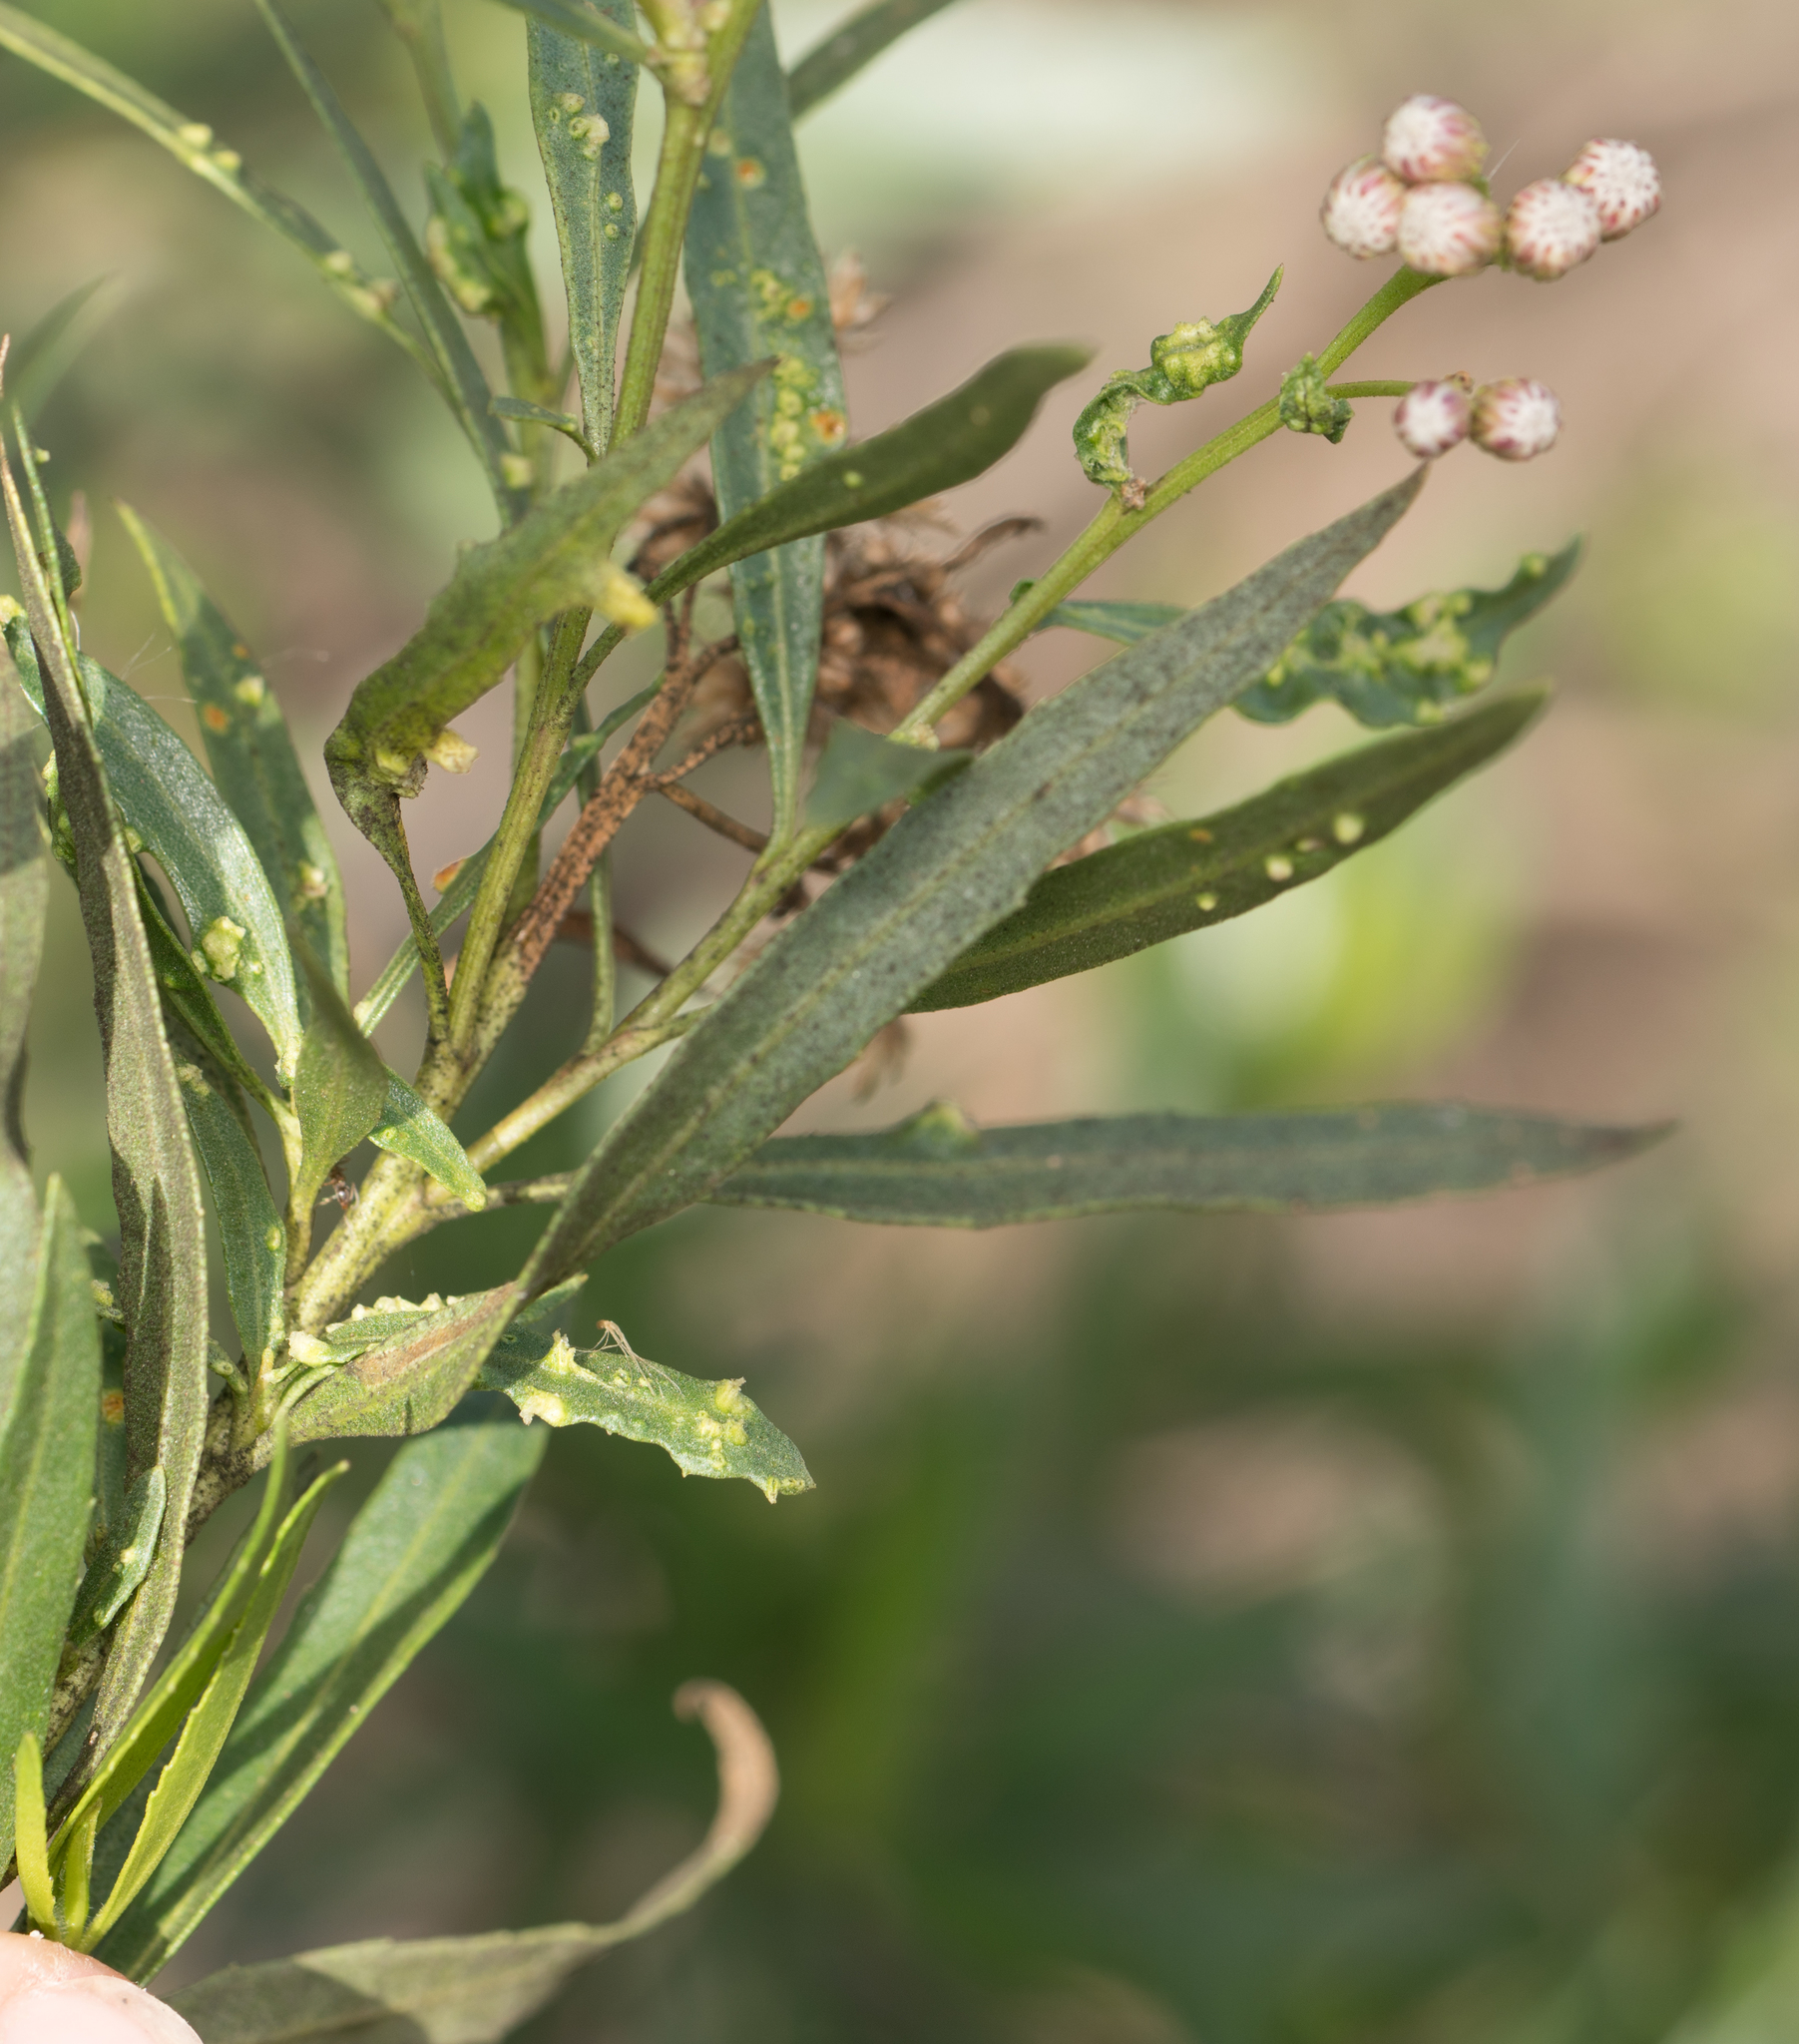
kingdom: Animalia
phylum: Arthropoda
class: Arachnida
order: Trombidiformes
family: Eriophyidae
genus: Aceria
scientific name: Aceria
